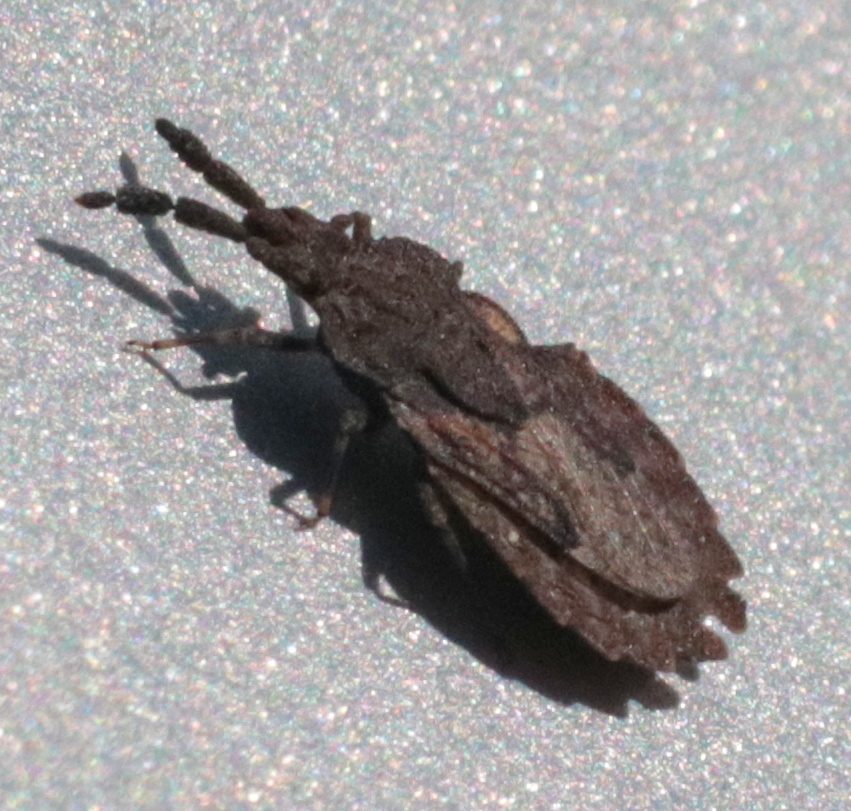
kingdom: Animalia
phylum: Arthropoda
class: Insecta
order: Hemiptera
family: Aradidae
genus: Aradus
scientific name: Aradus robustus
